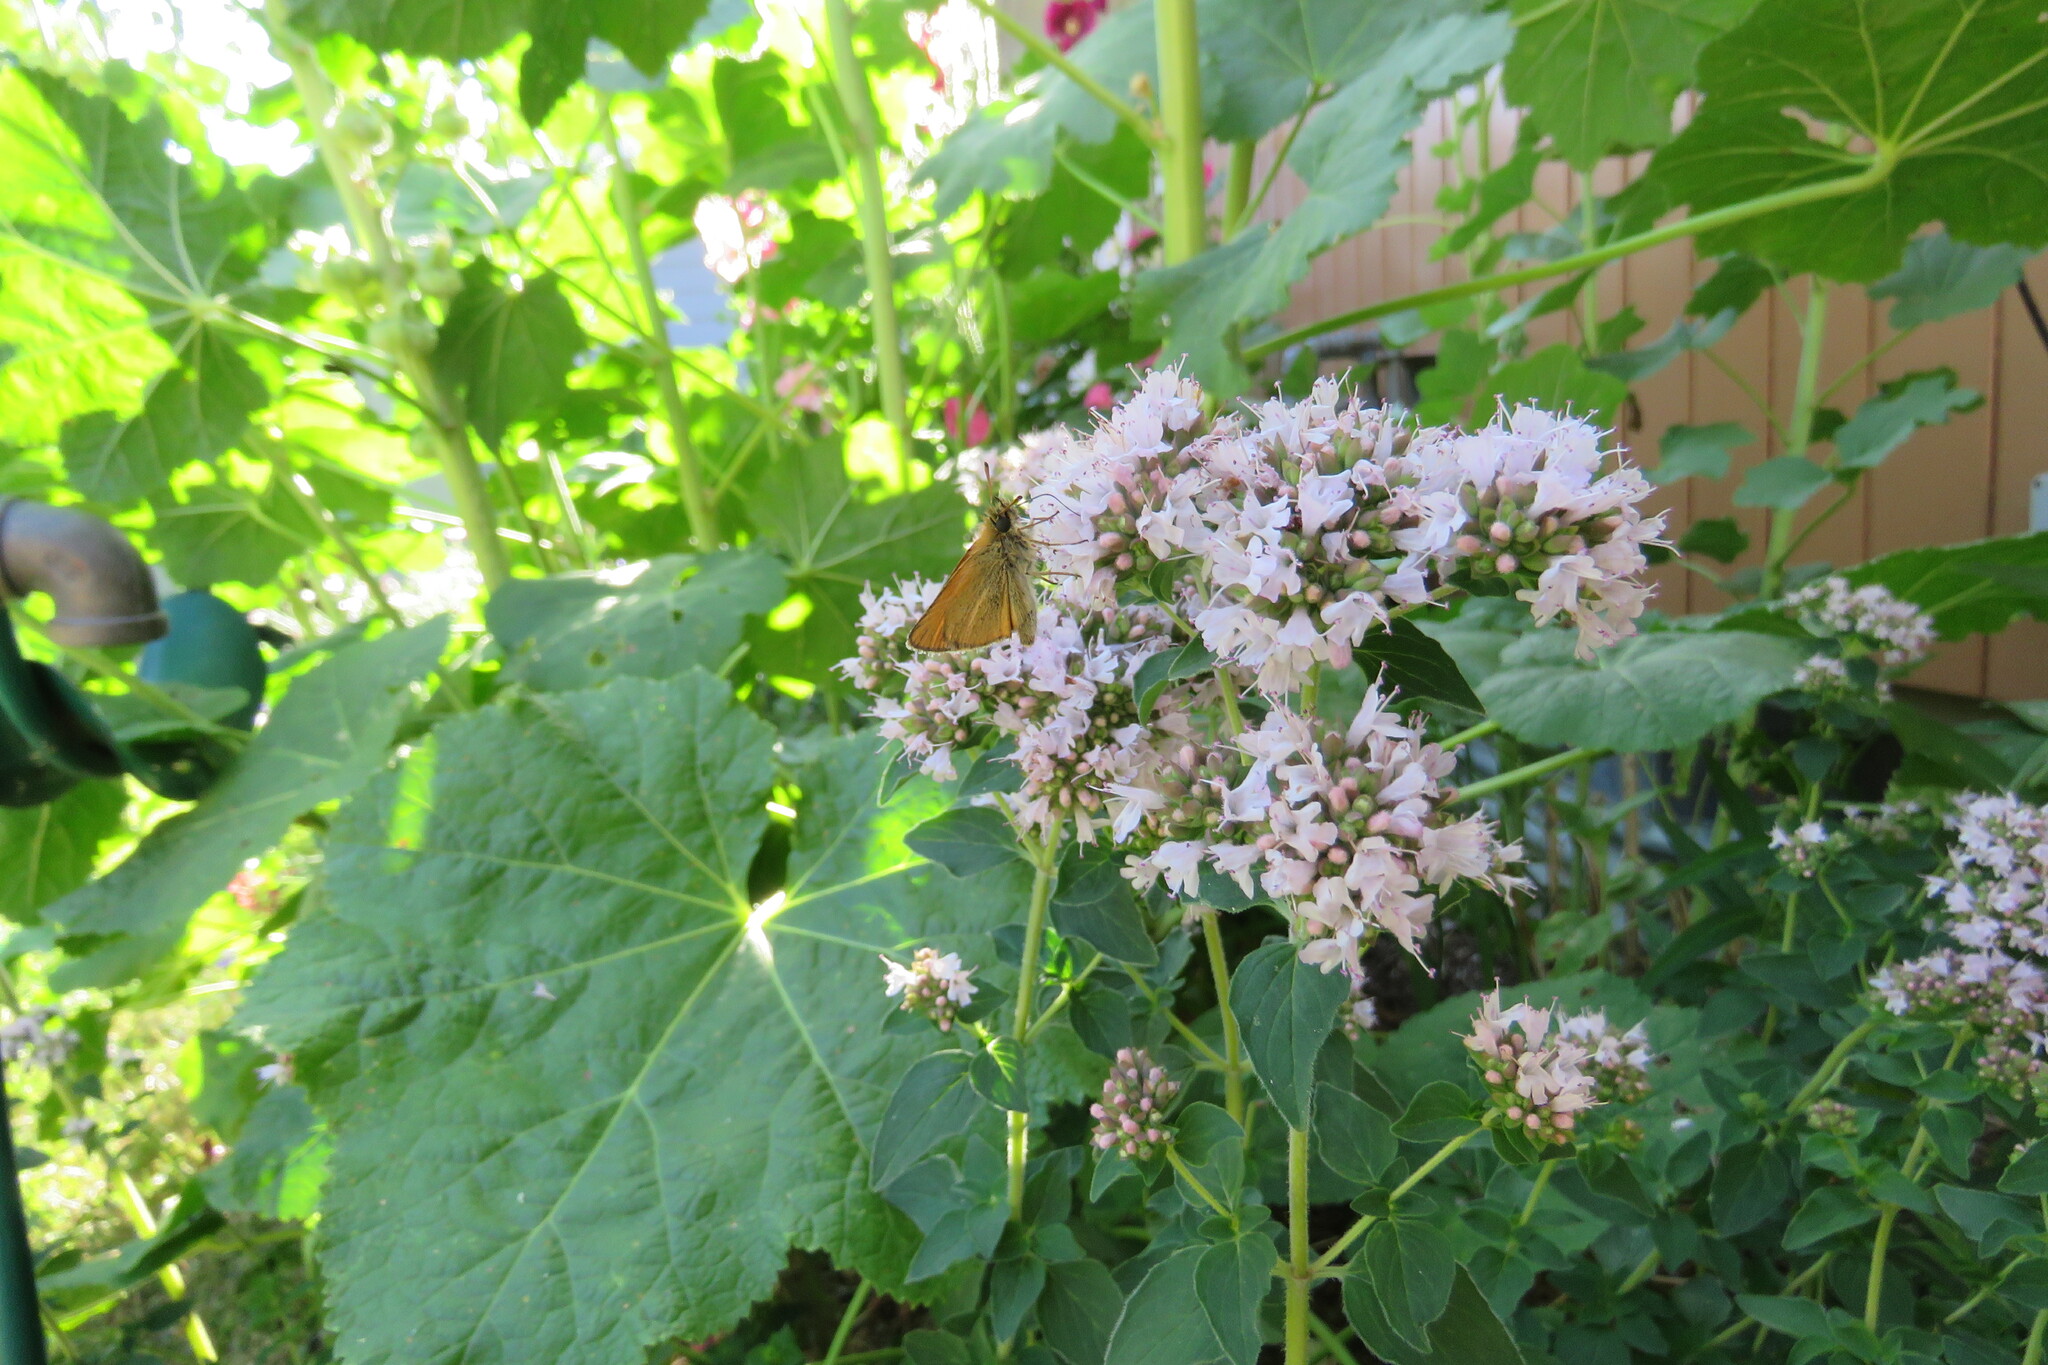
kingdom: Animalia
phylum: Arthropoda
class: Insecta
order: Lepidoptera
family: Hesperiidae
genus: Thymelicus
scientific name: Thymelicus lineola
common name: Essex skipper
